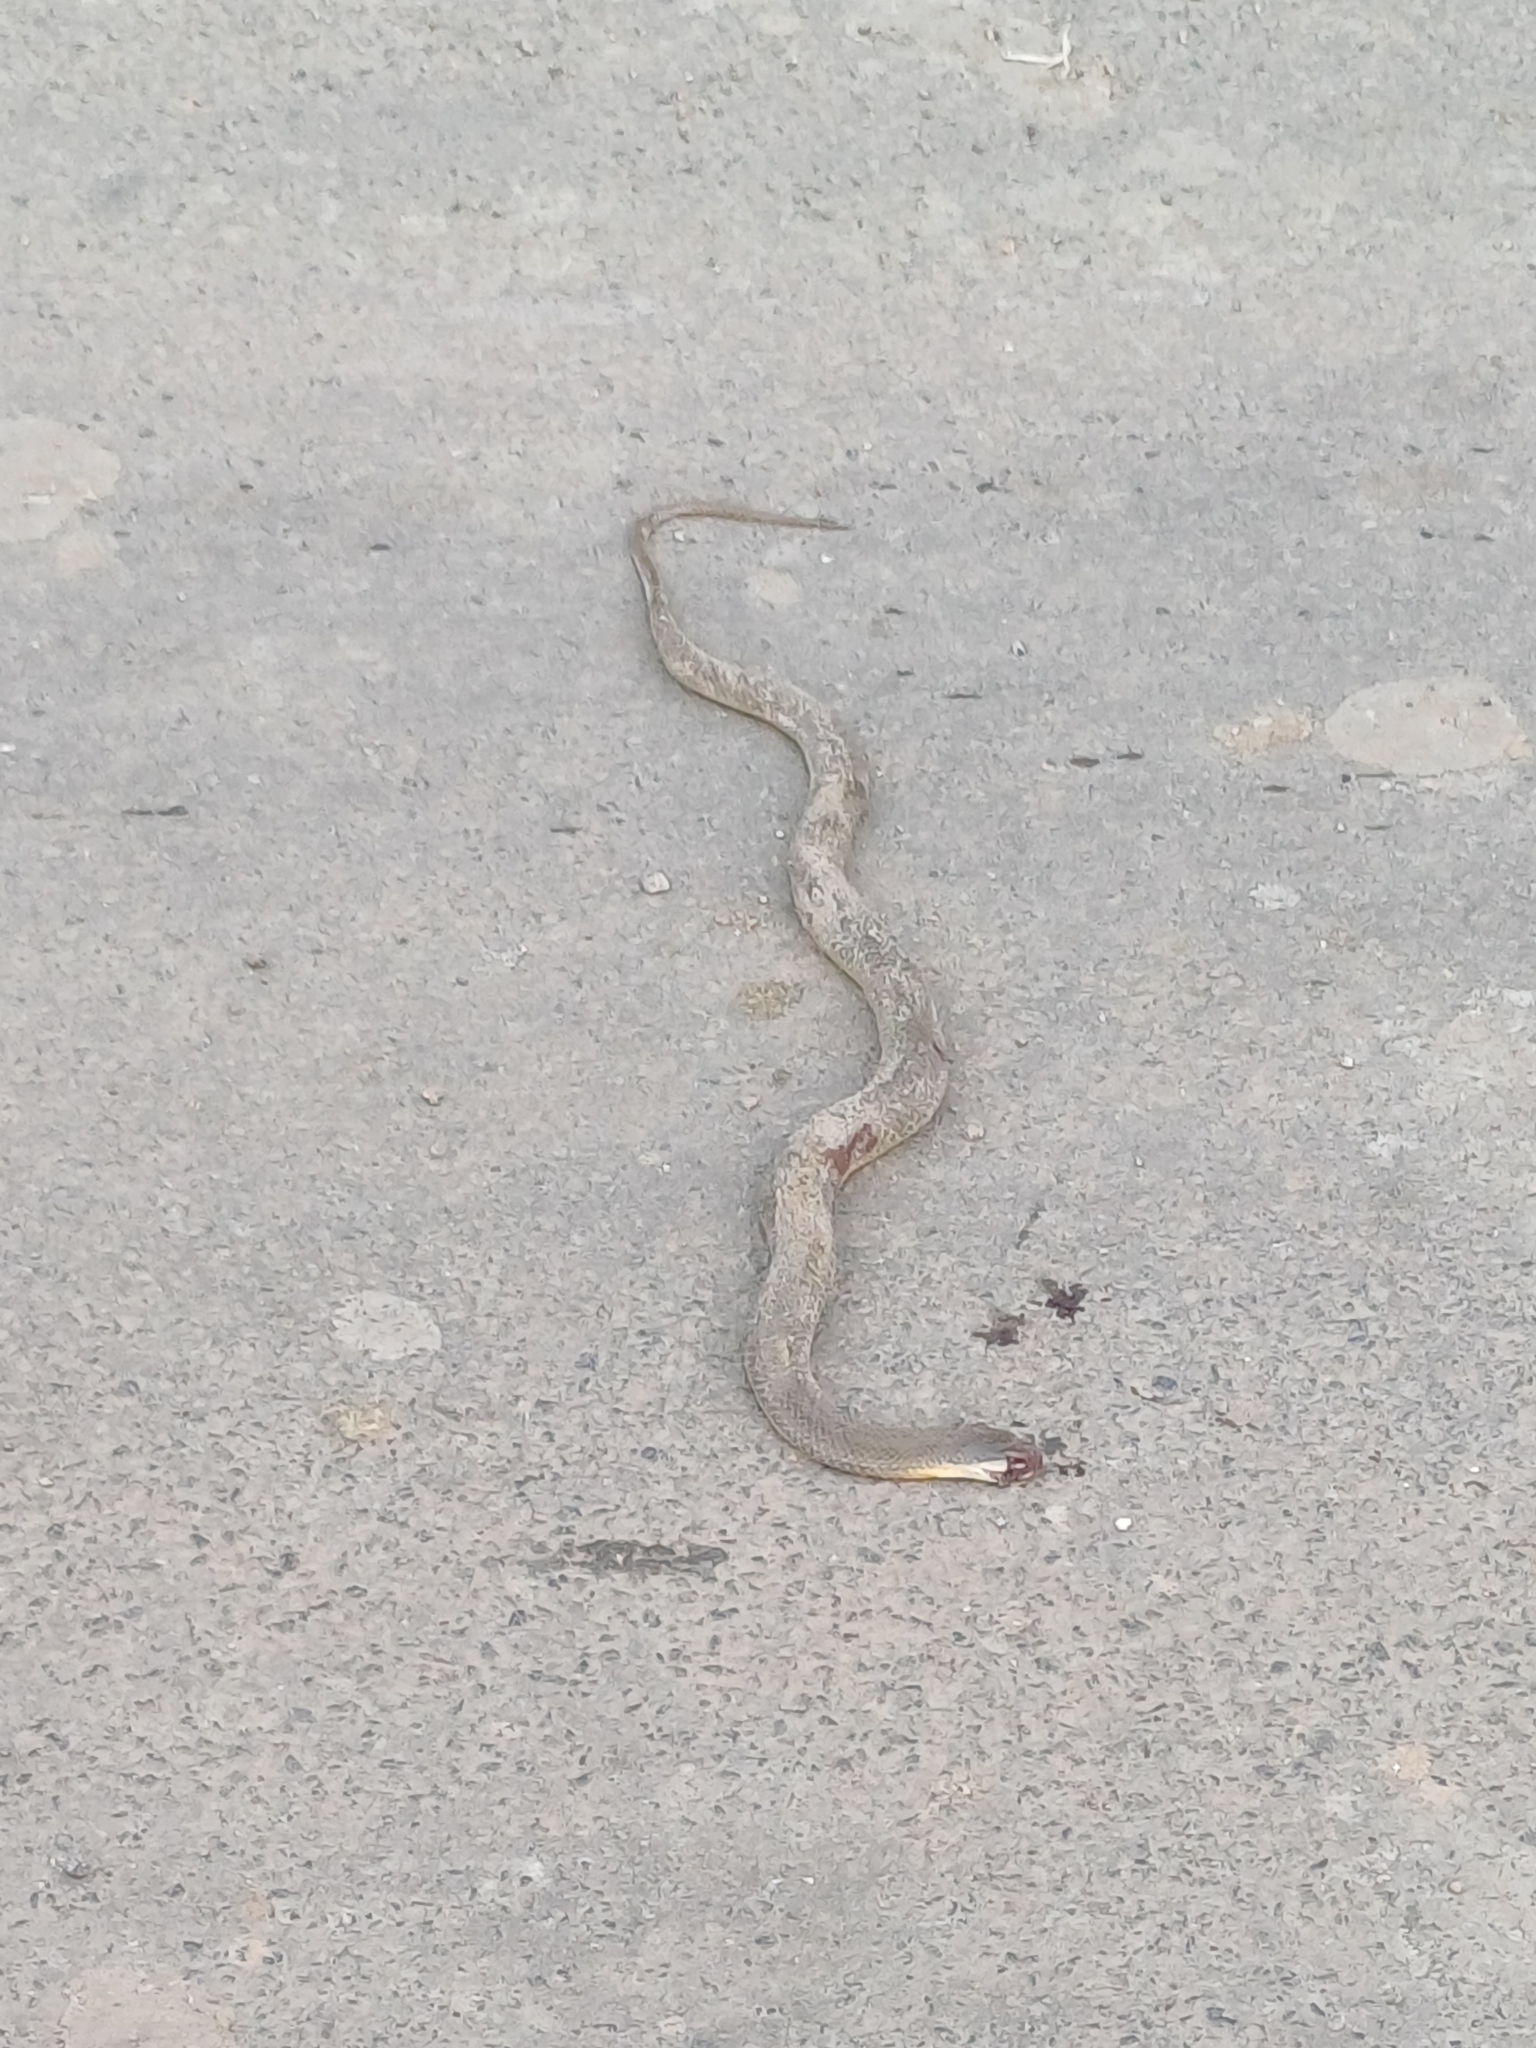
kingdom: Animalia
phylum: Chordata
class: Squamata
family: Colubridae
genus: Atretium
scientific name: Atretium schistosum
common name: Olive keelback wart snake
